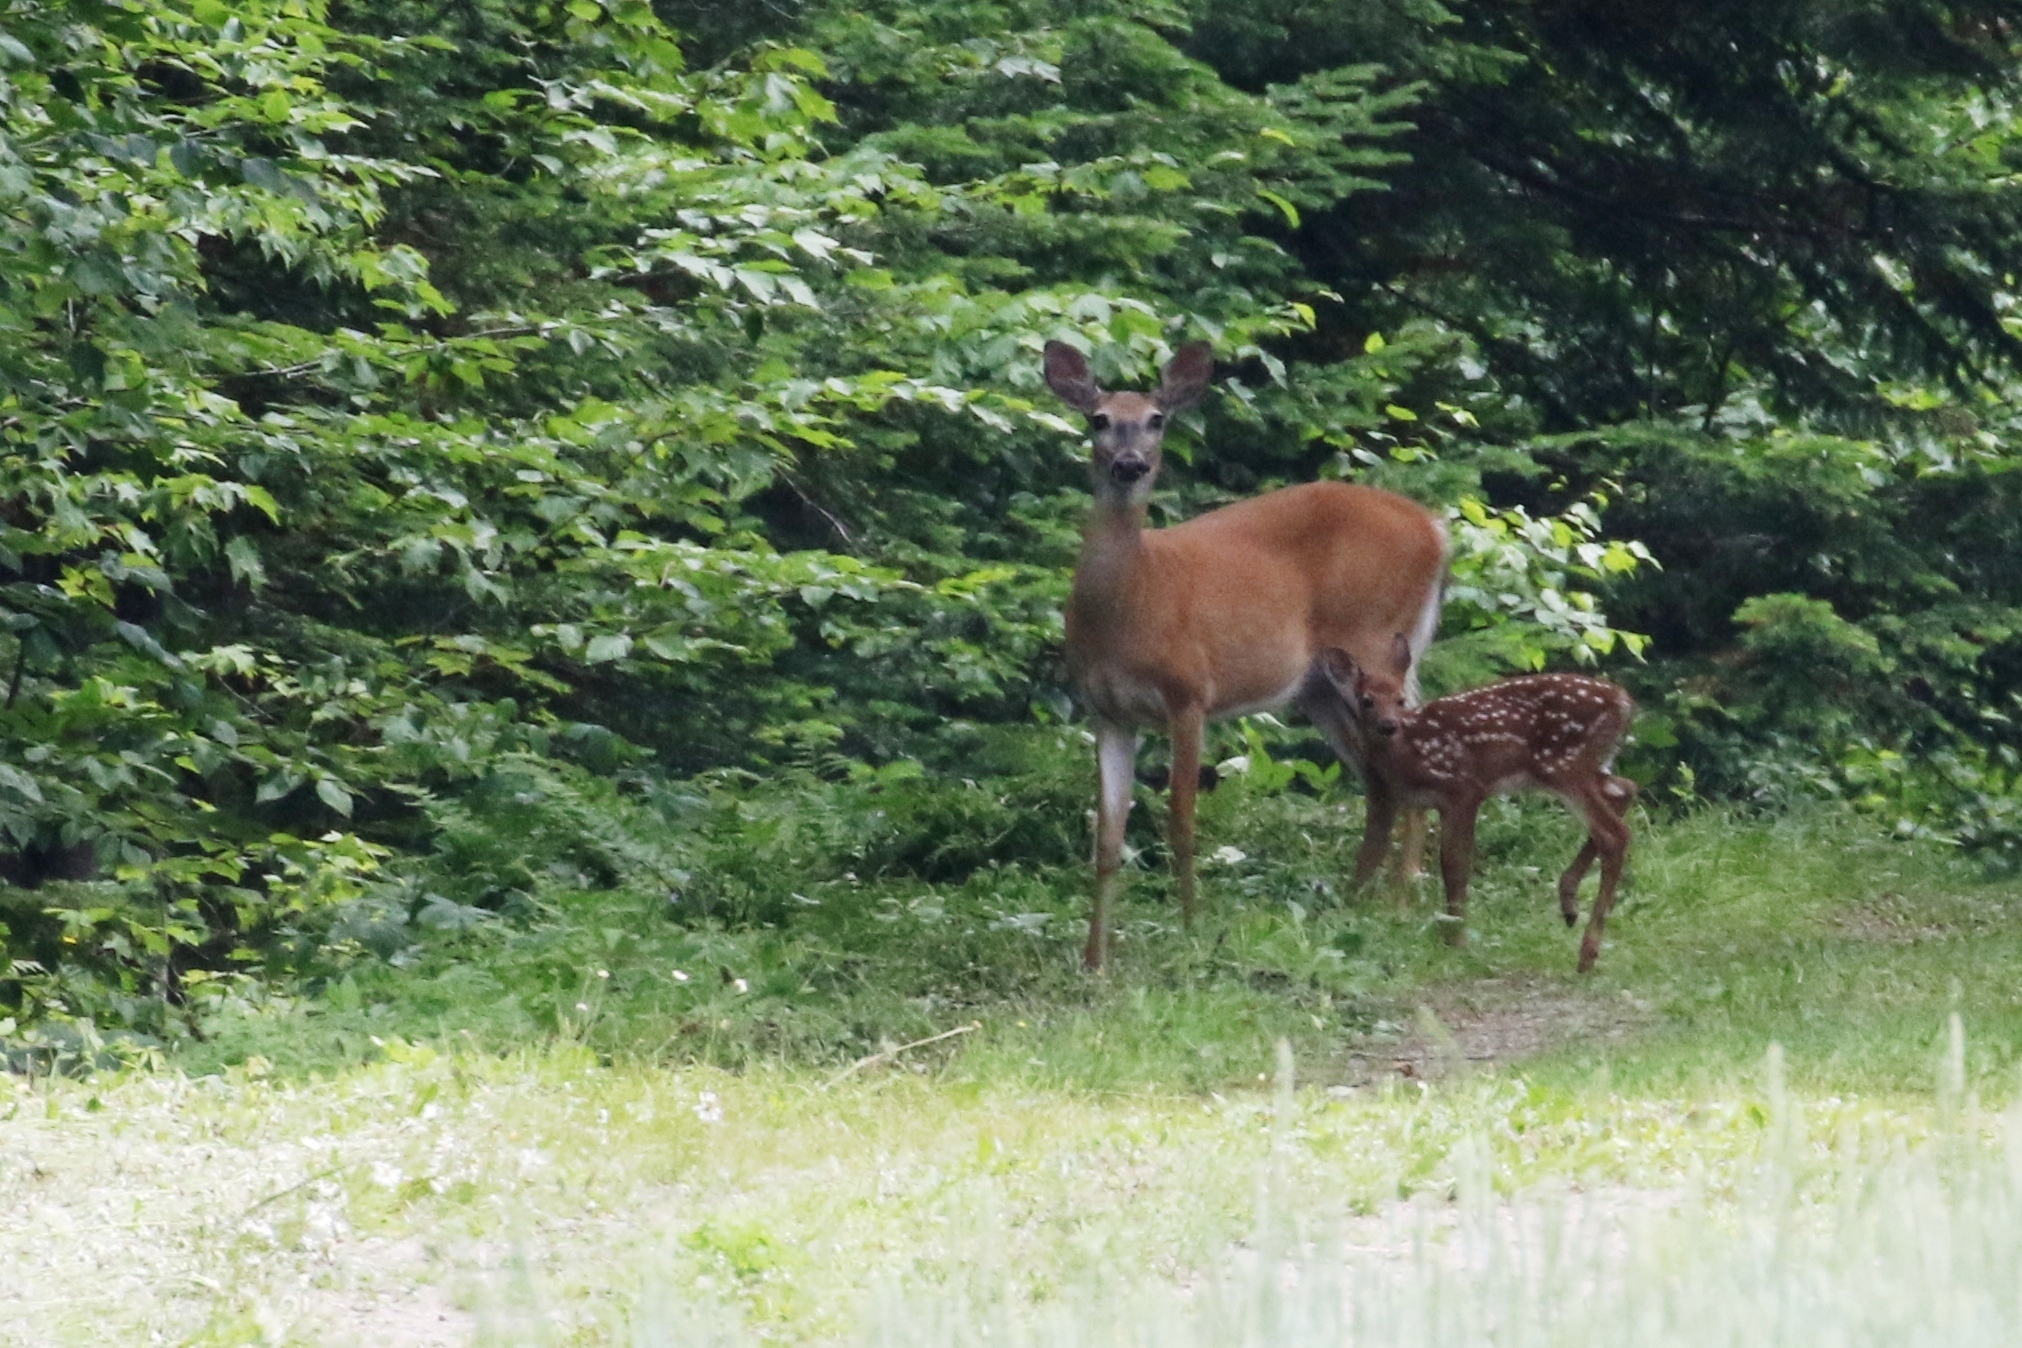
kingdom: Animalia
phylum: Chordata
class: Mammalia
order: Artiodactyla
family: Cervidae
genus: Odocoileus
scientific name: Odocoileus virginianus
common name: White-tailed deer
